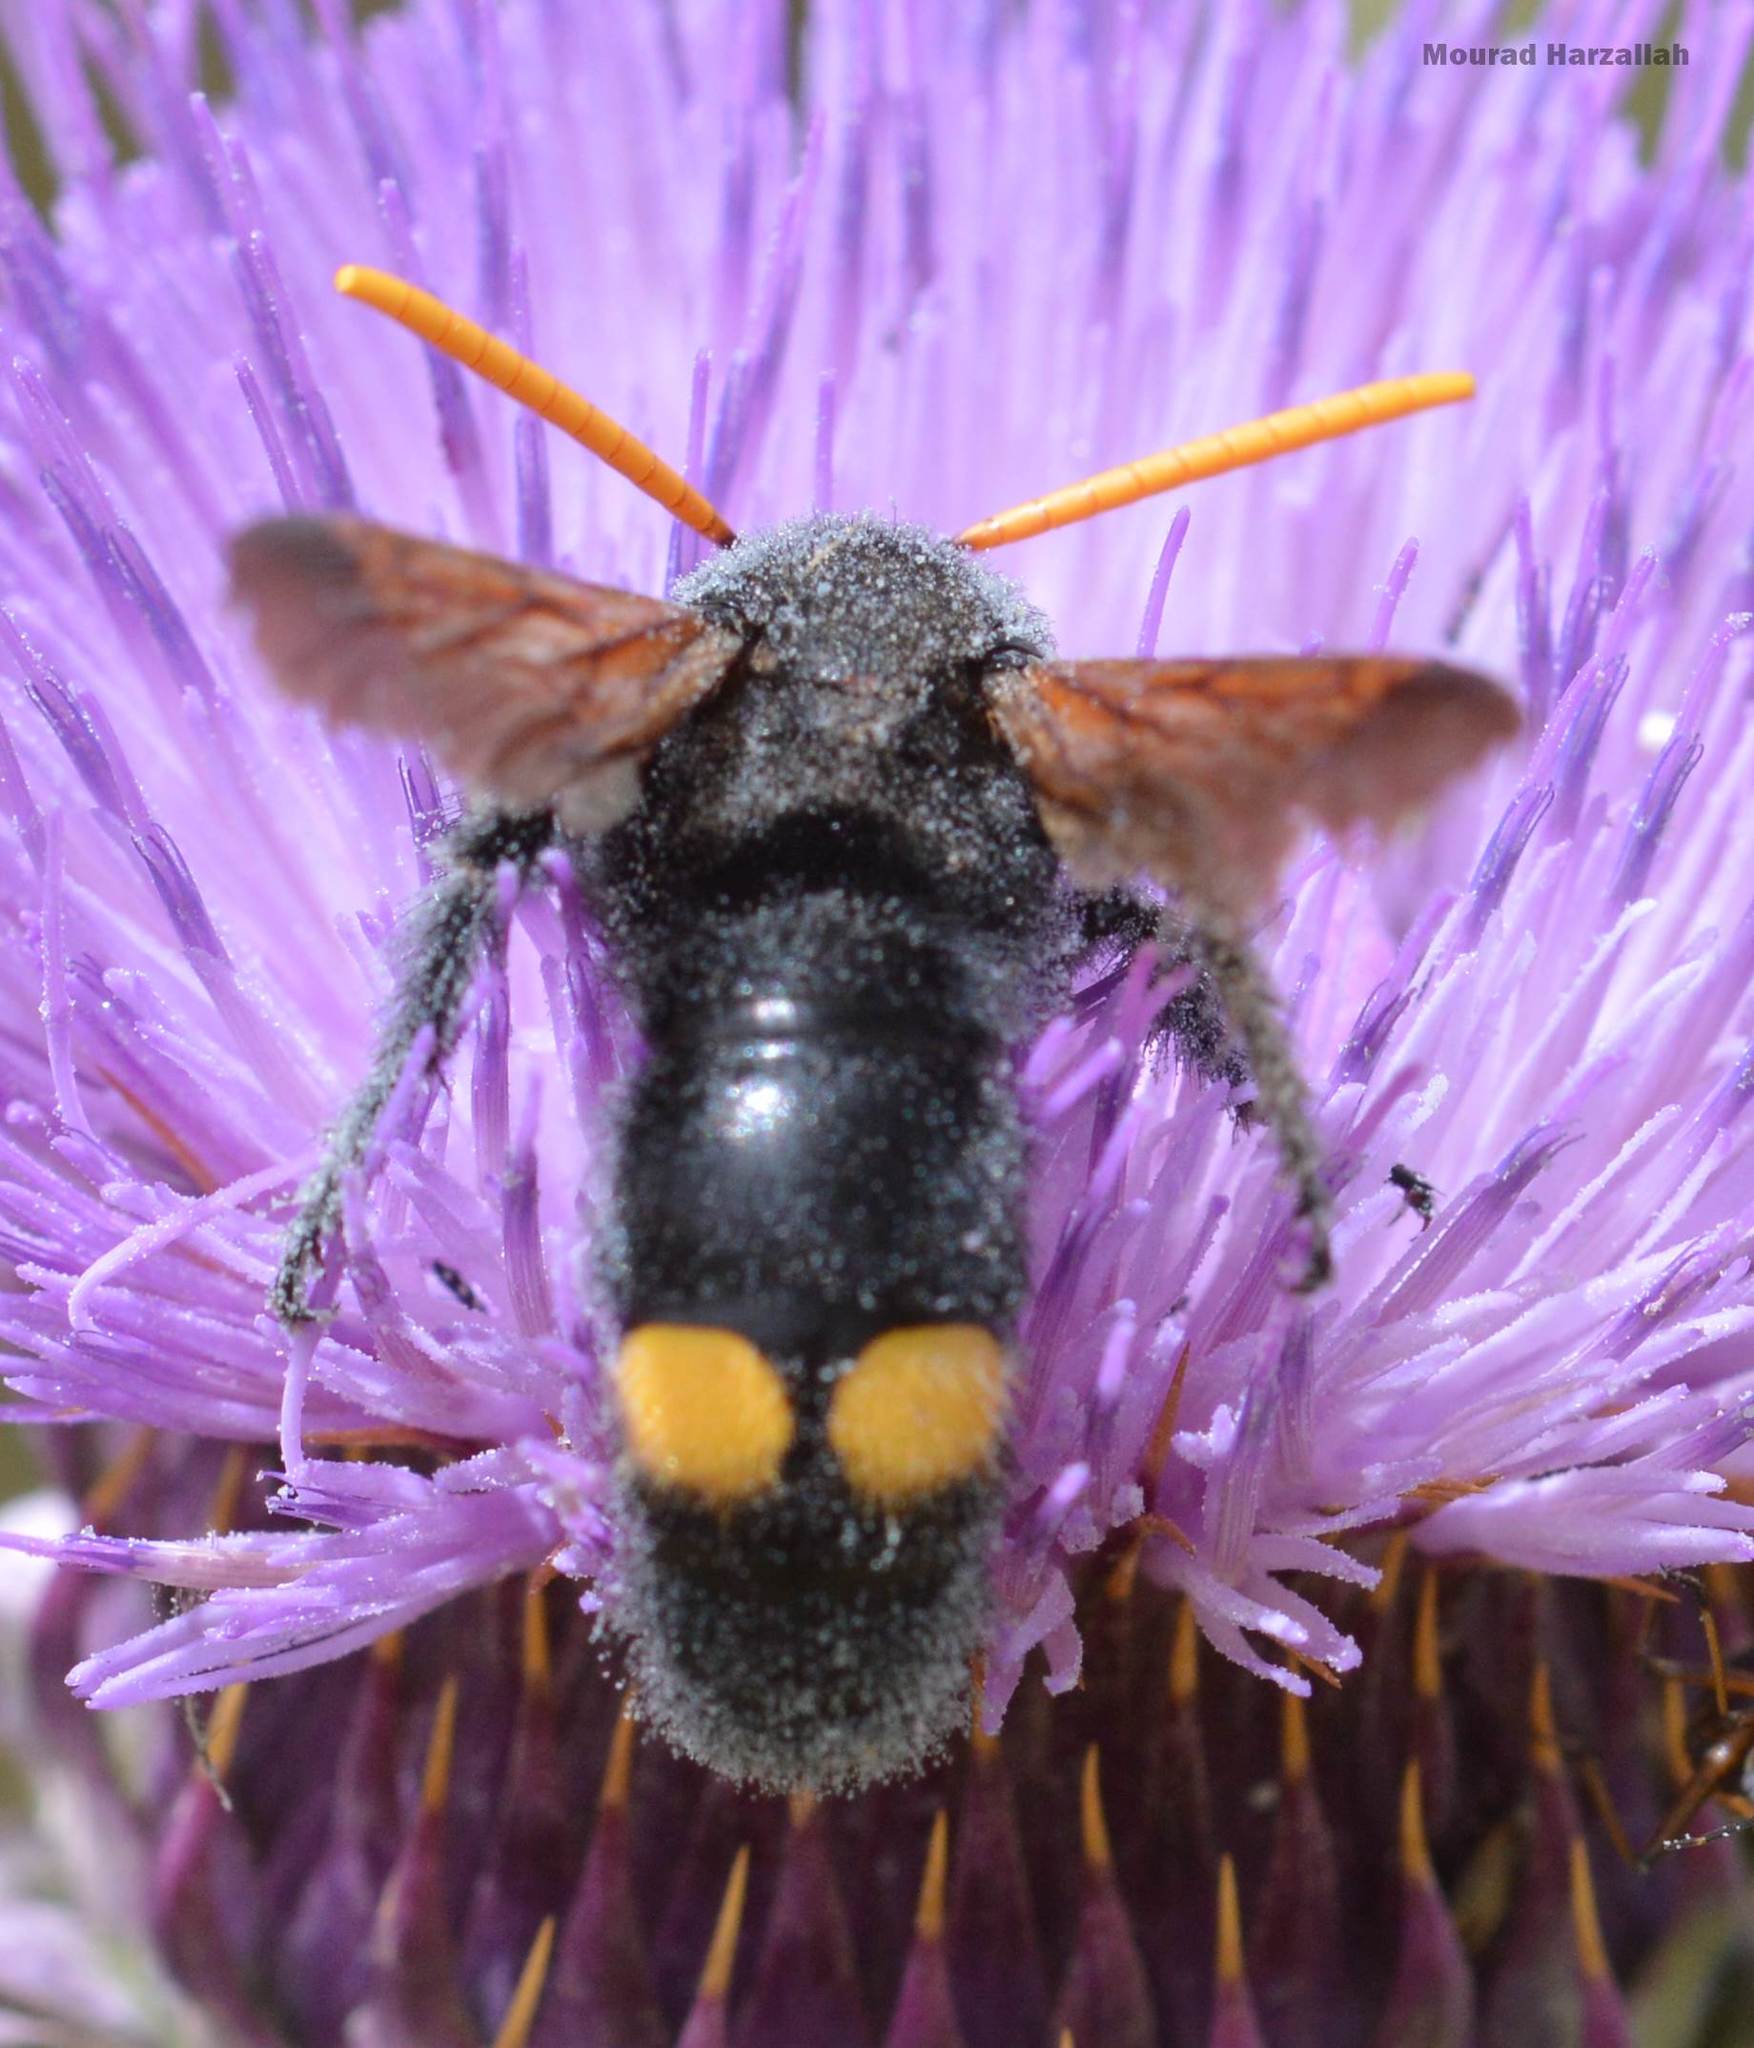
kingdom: Animalia
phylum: Arthropoda
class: Insecta
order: Hymenoptera
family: Scoliidae
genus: Megascolia
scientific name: Megascolia bidens
